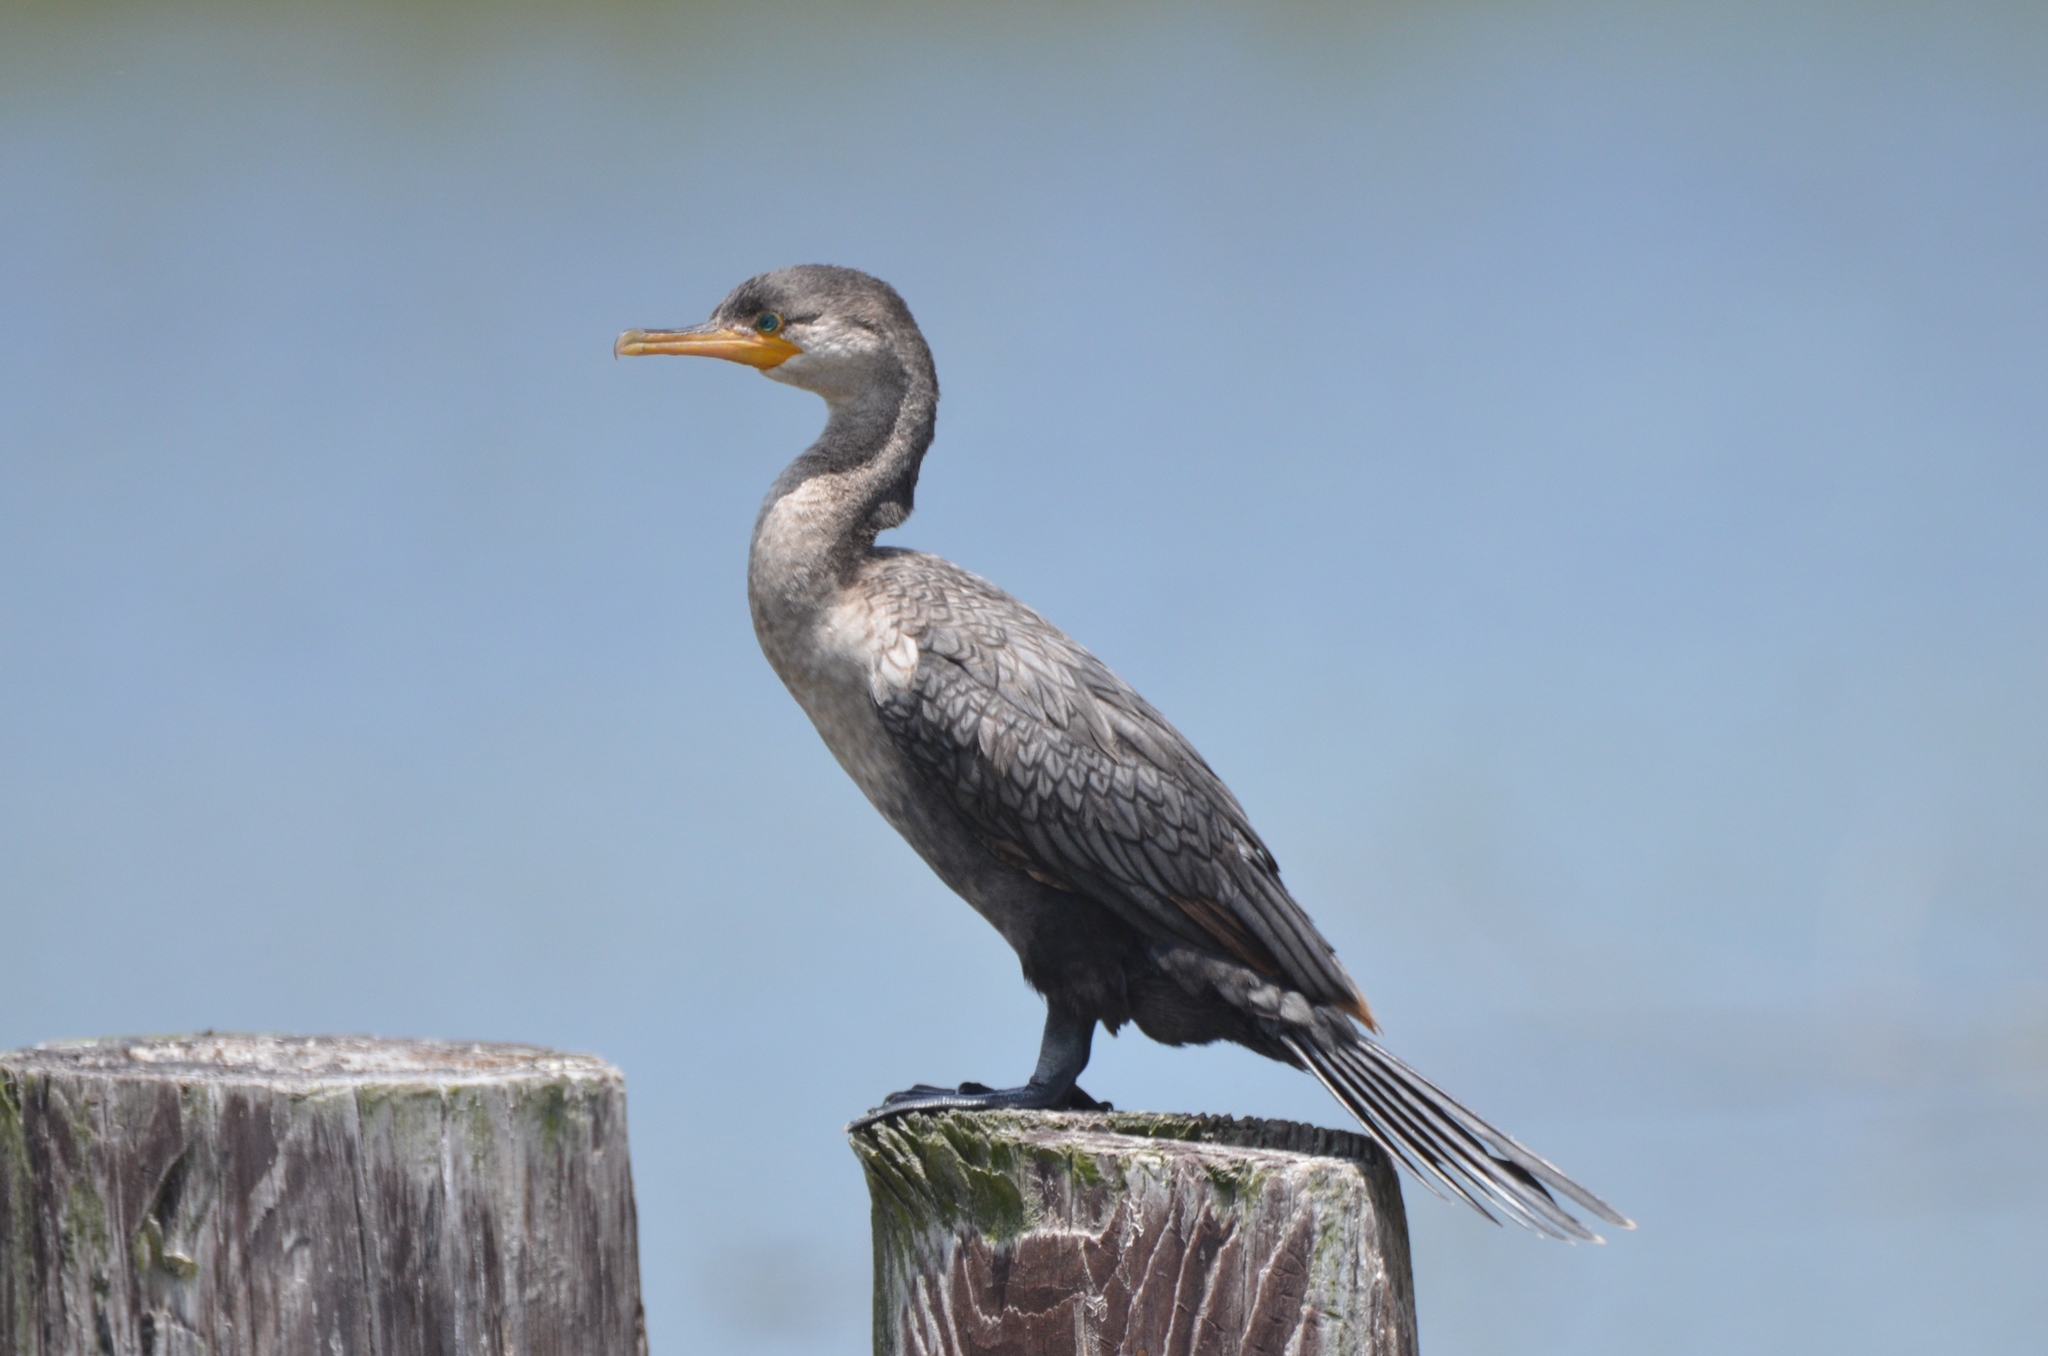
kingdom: Animalia
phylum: Chordata
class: Aves
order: Suliformes
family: Phalacrocoracidae
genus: Phalacrocorax
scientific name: Phalacrocorax brasilianus
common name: Neotropic cormorant
